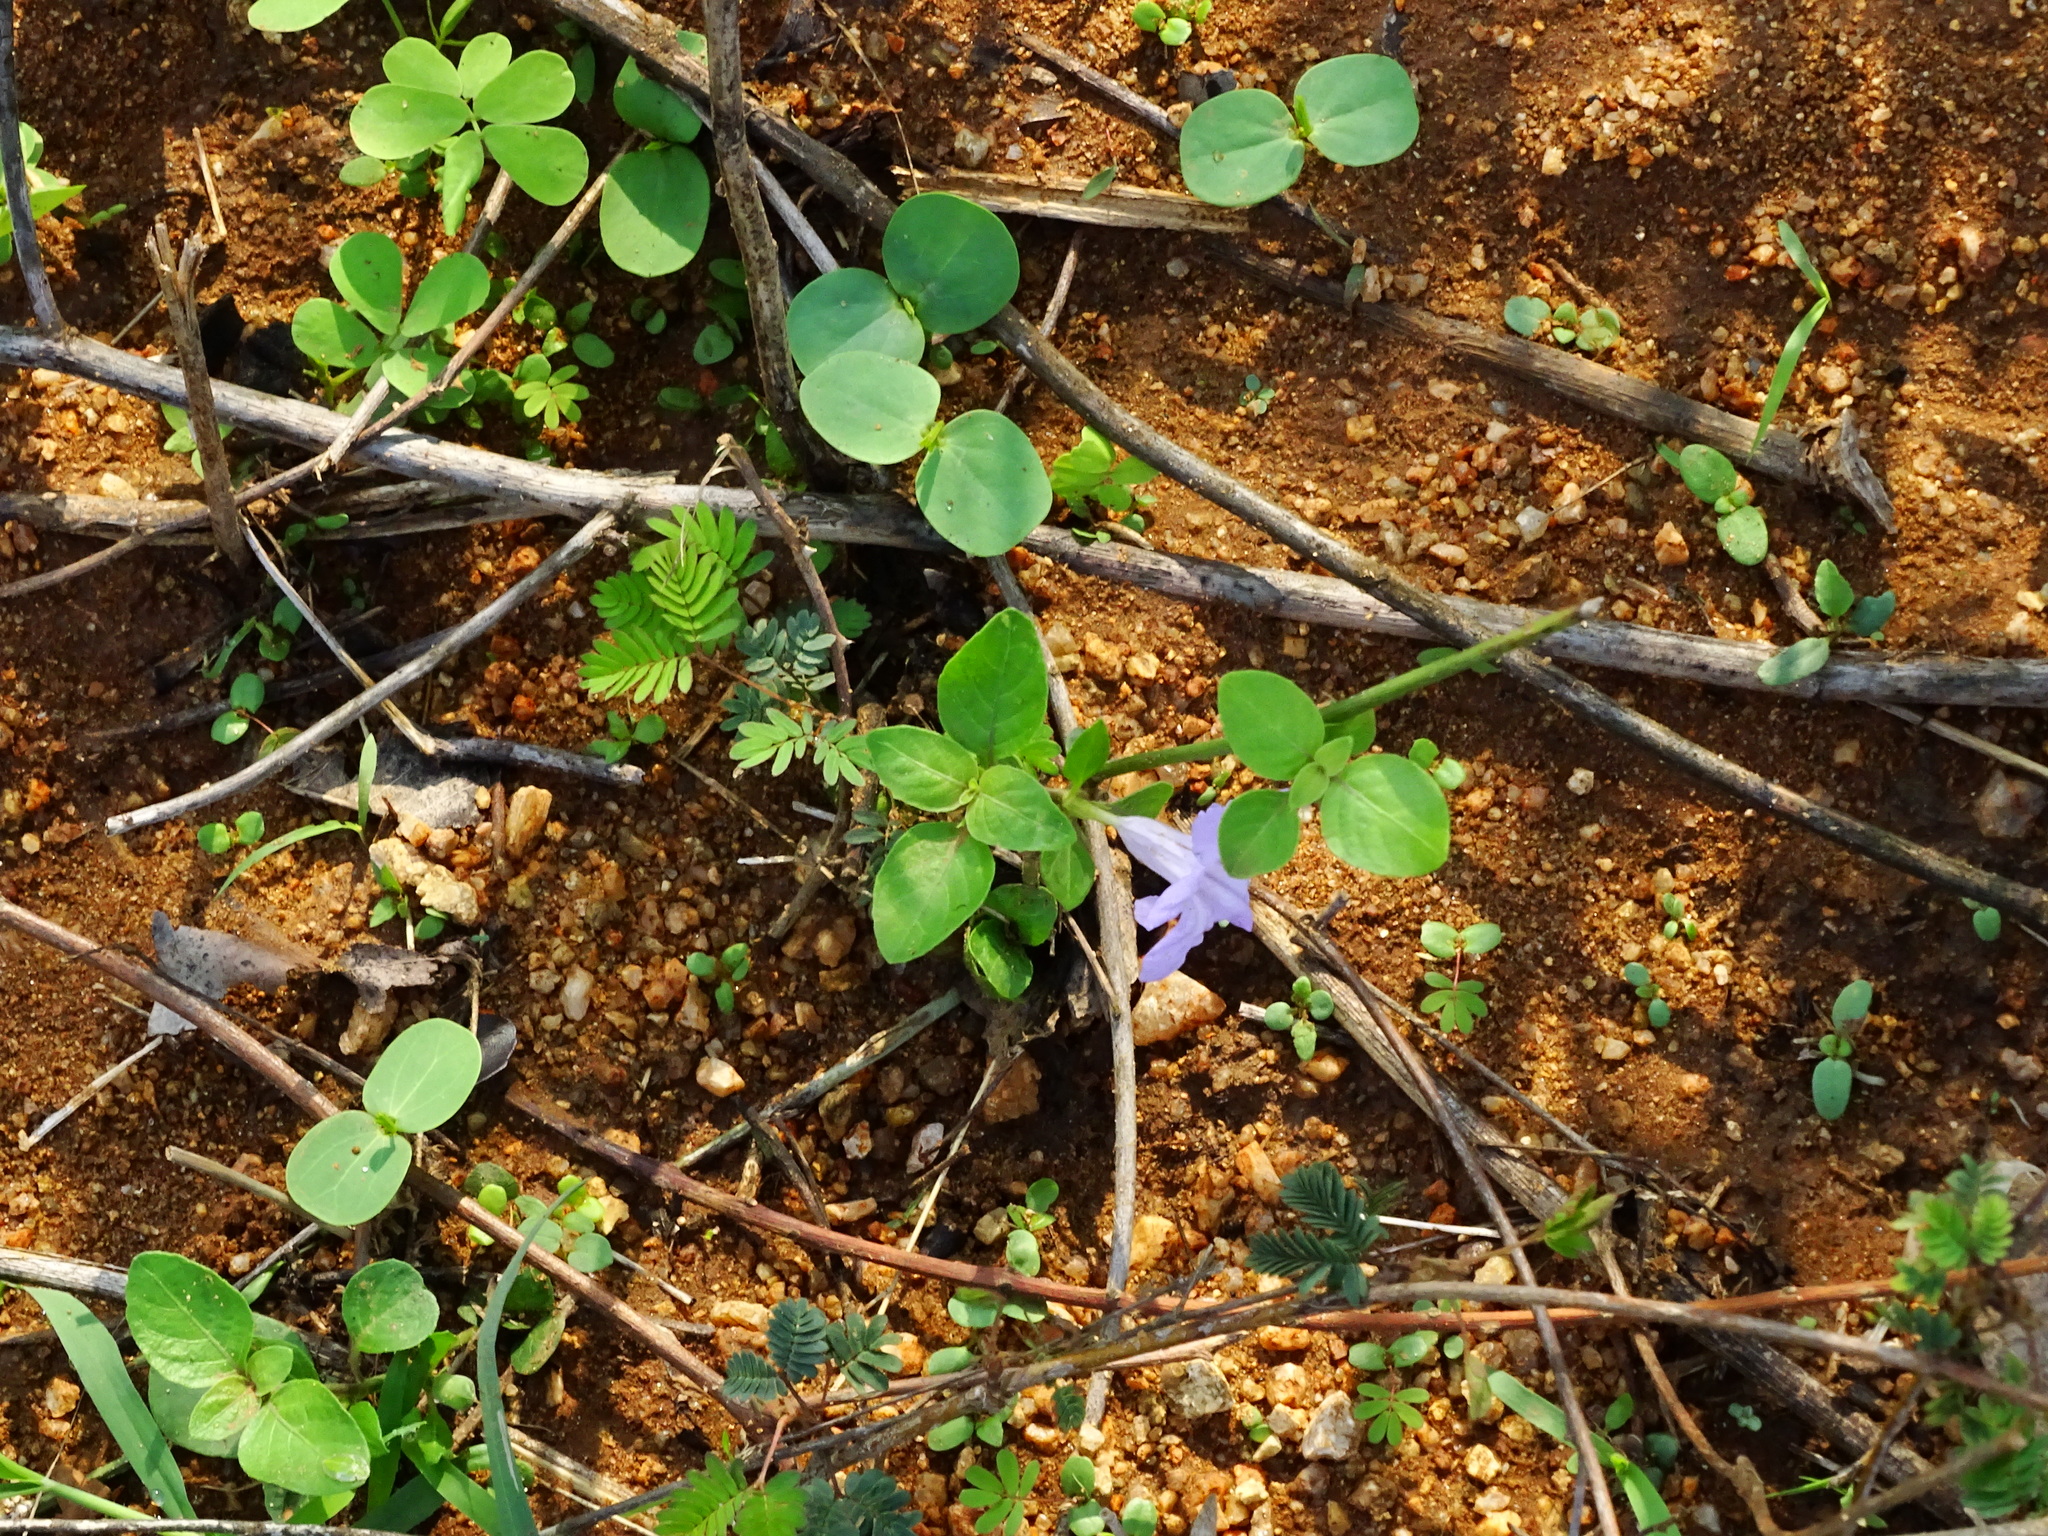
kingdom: Plantae
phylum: Tracheophyta
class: Magnoliopsida
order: Lamiales
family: Acanthaceae
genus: Ruellia
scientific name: Ruellia tuberosa
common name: Devil's bit
